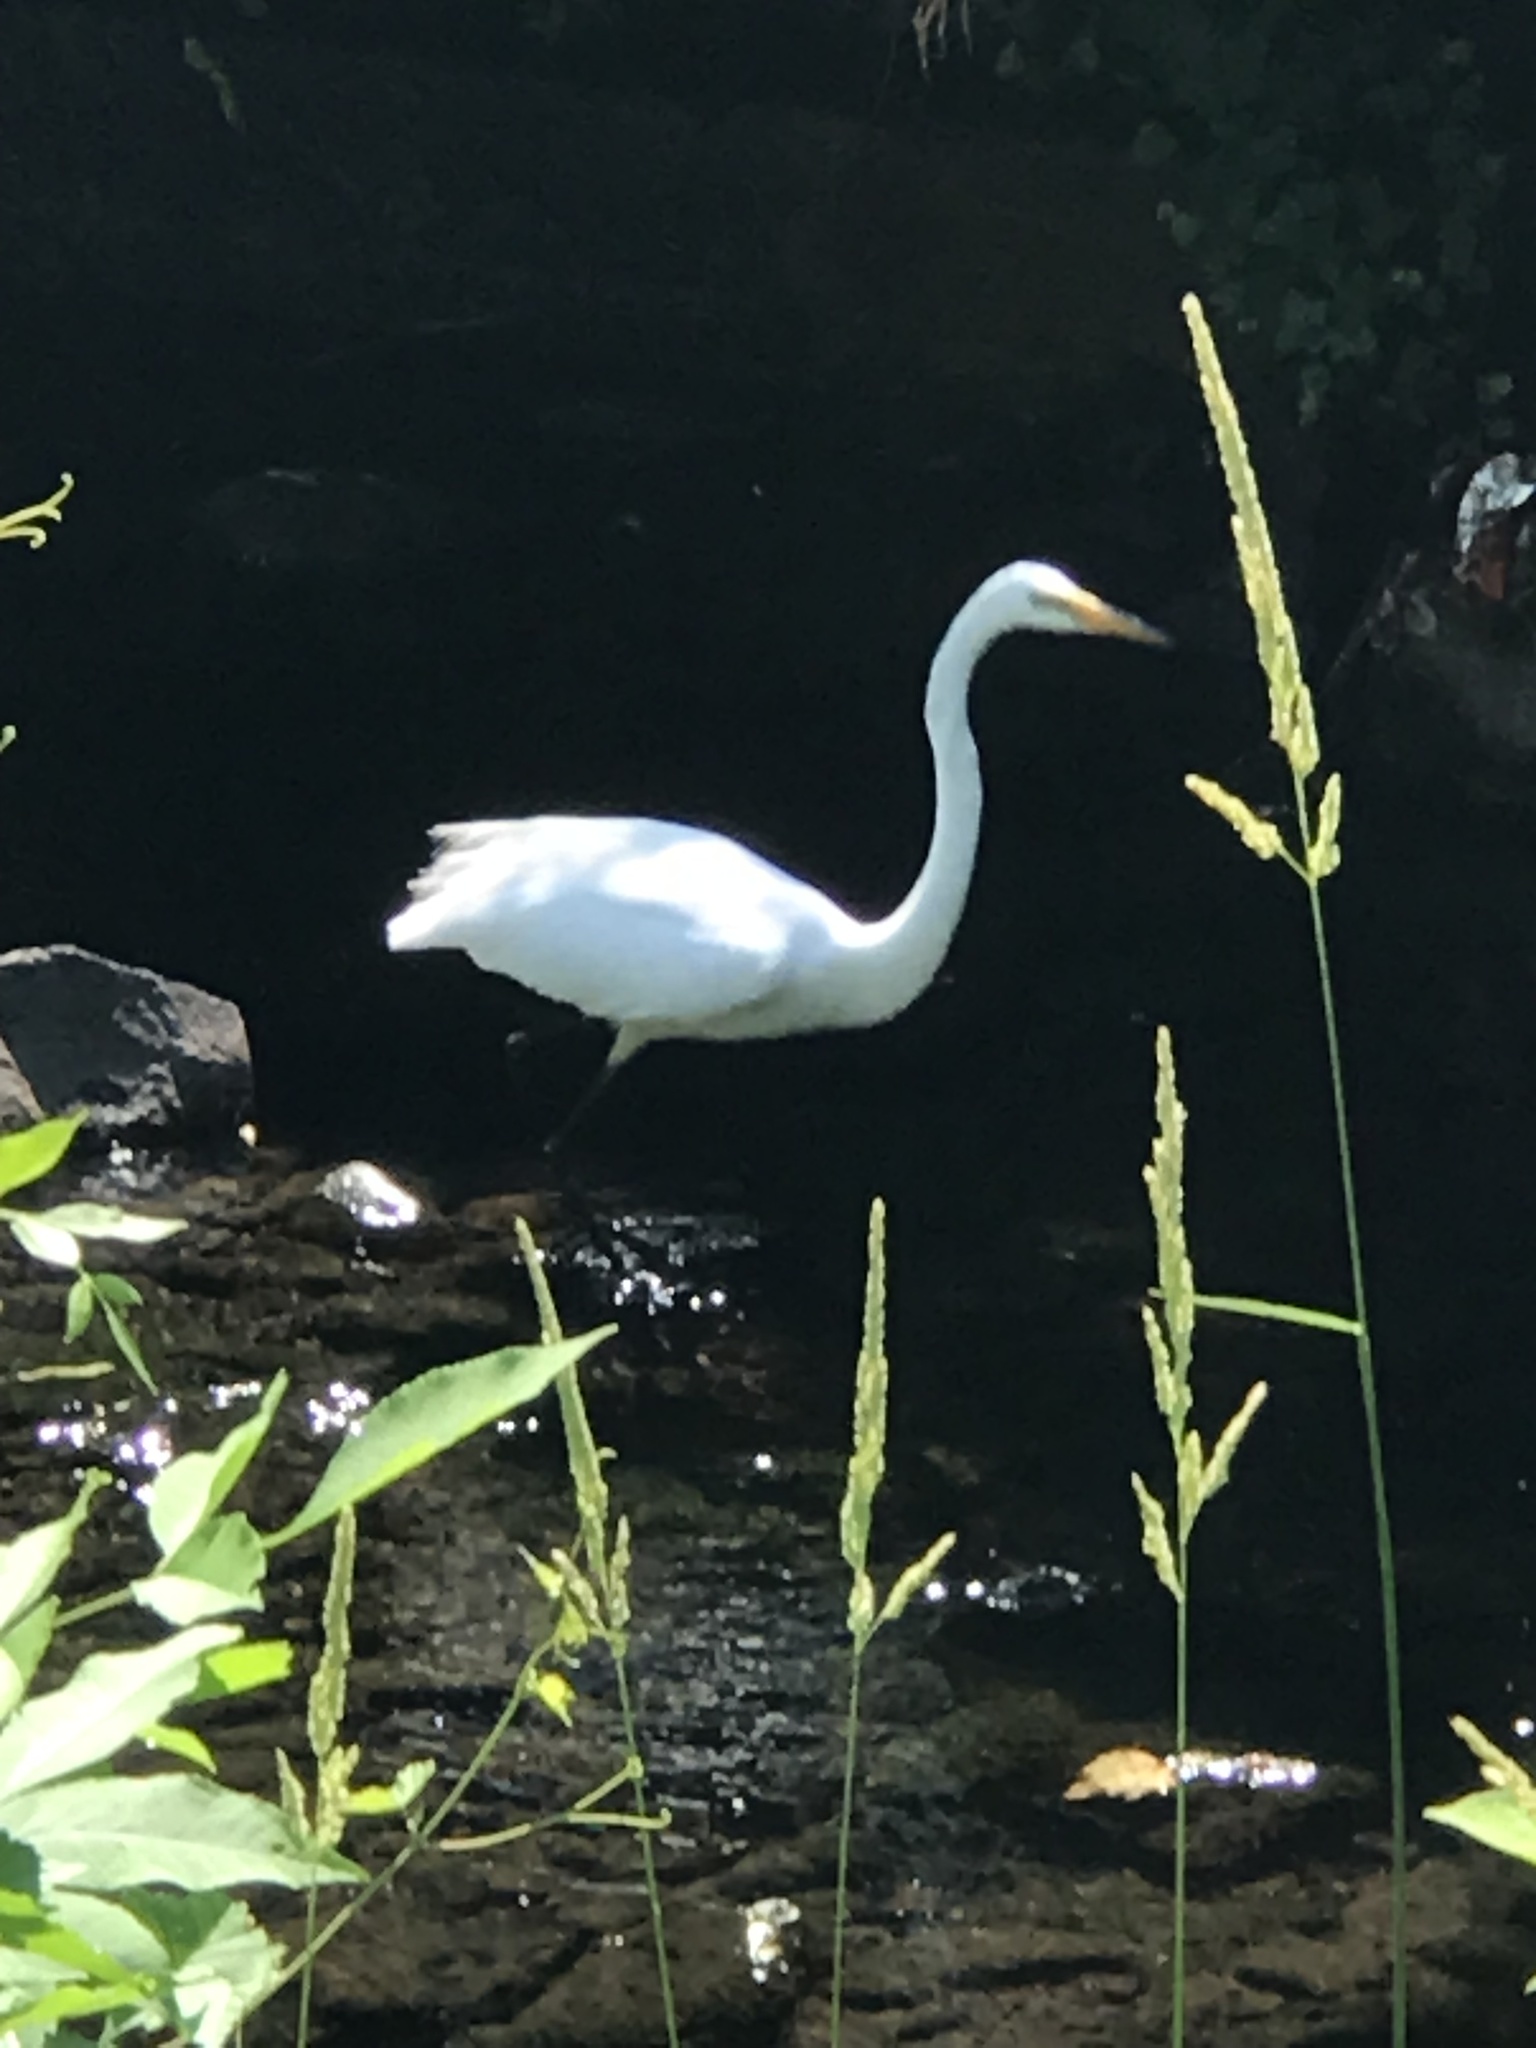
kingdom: Animalia
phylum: Chordata
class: Aves
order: Pelecaniformes
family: Ardeidae
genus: Ardea
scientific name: Ardea alba
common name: Great egret
